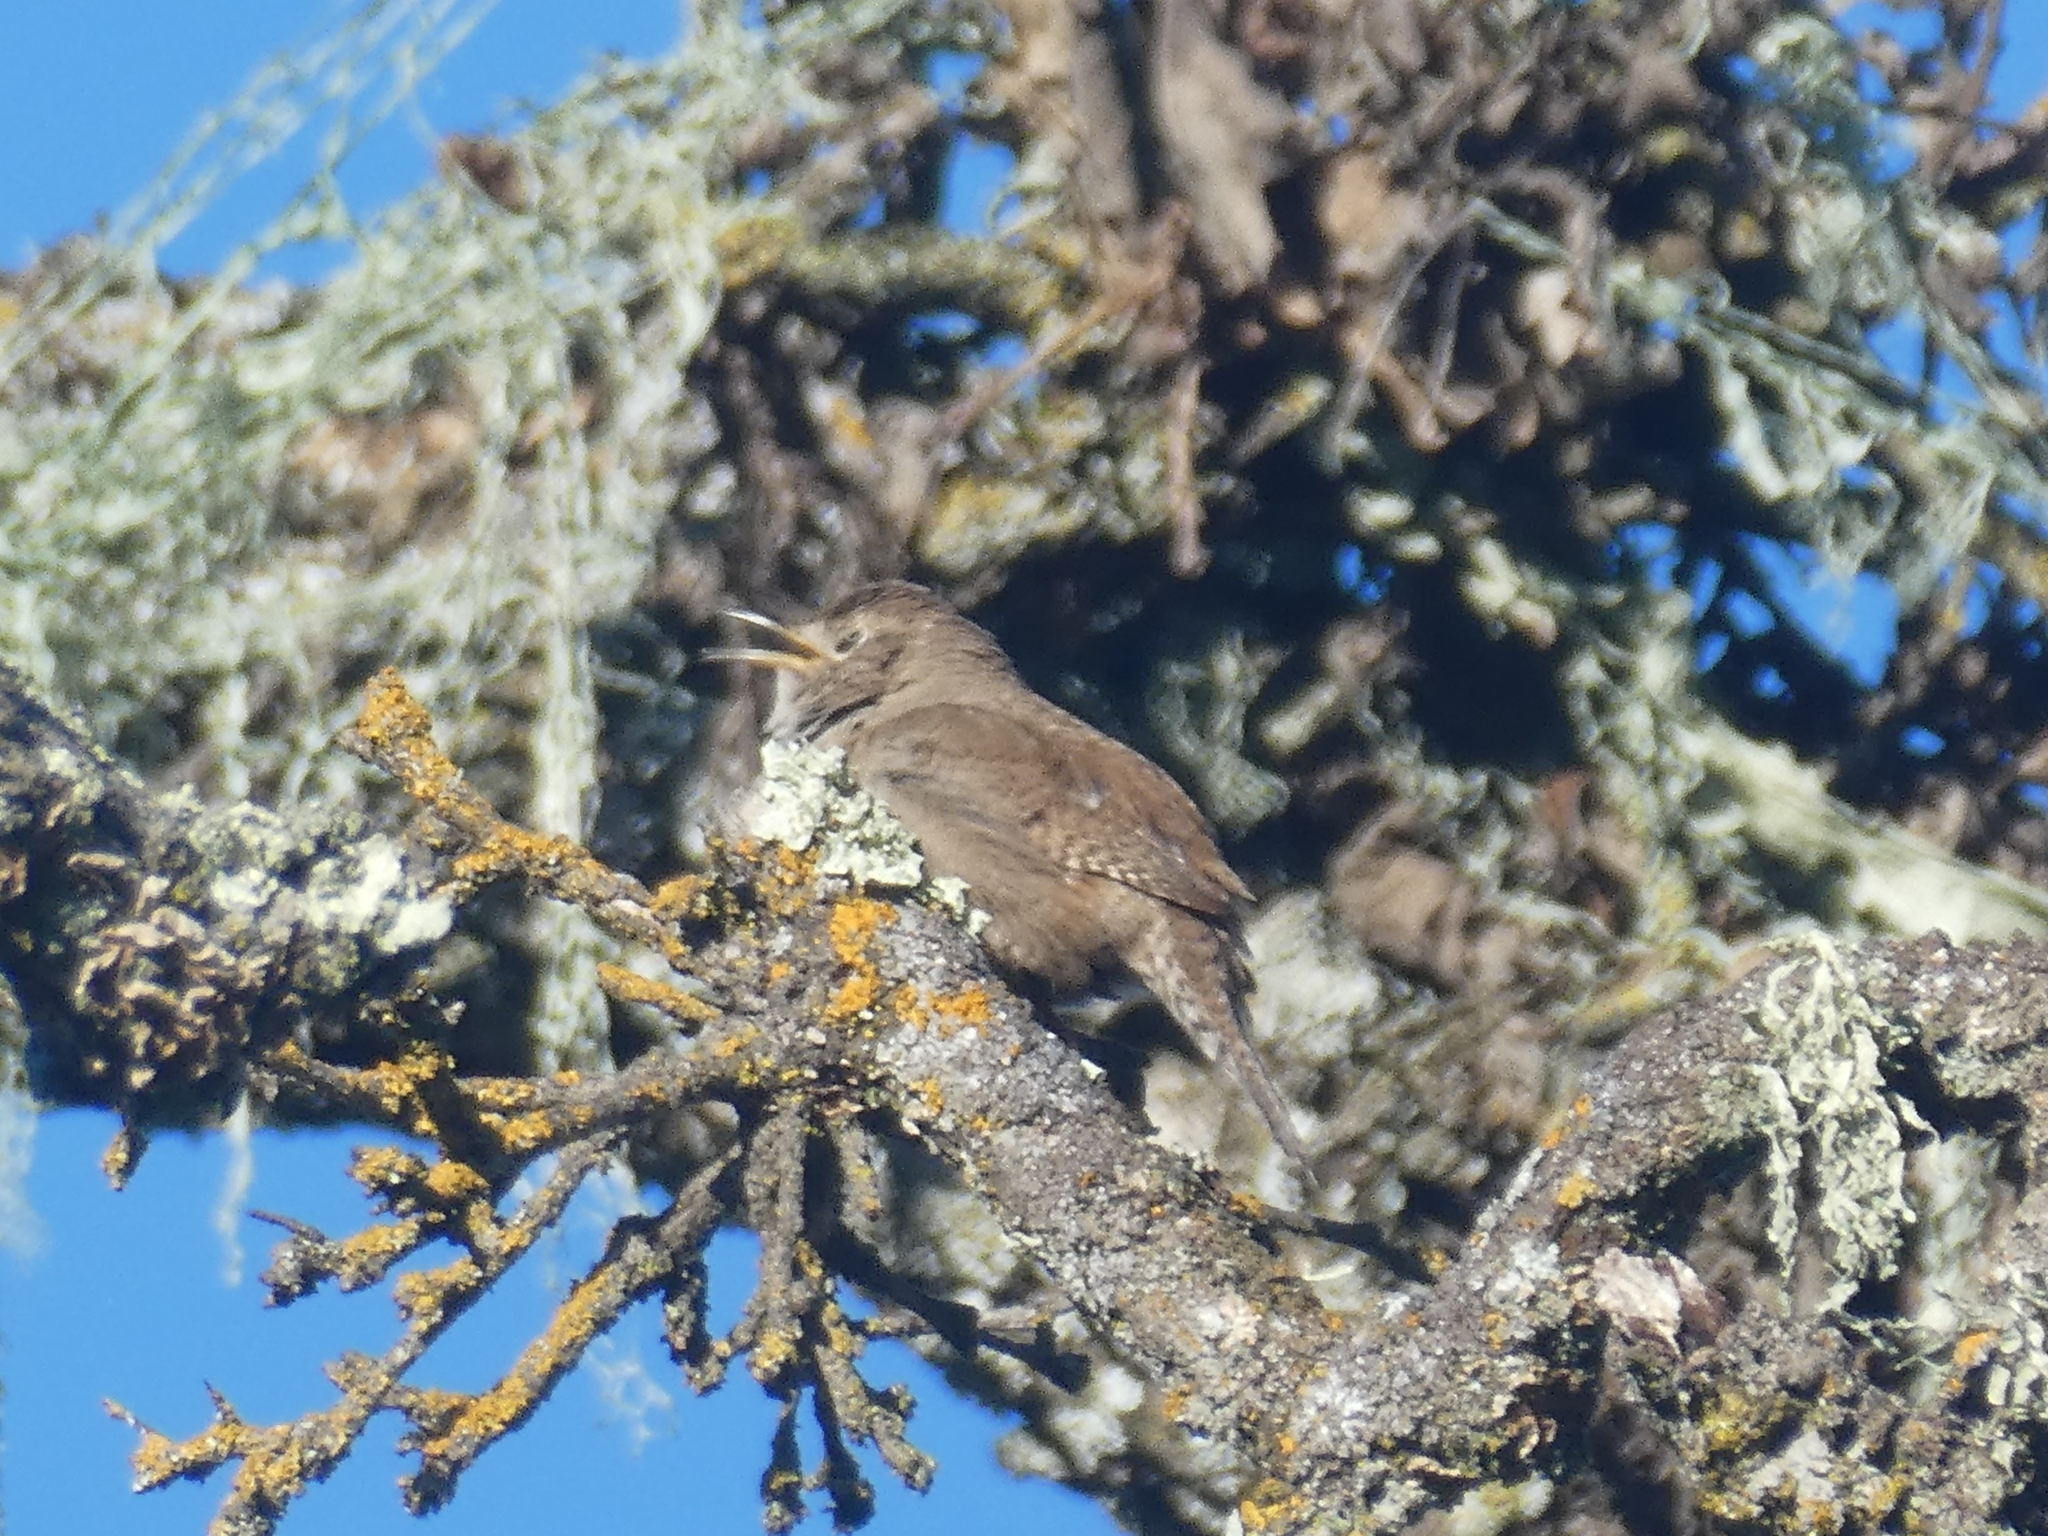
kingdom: Animalia
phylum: Chordata
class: Aves
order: Passeriformes
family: Troglodytidae
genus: Troglodytes
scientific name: Troglodytes aedon
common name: House wren
